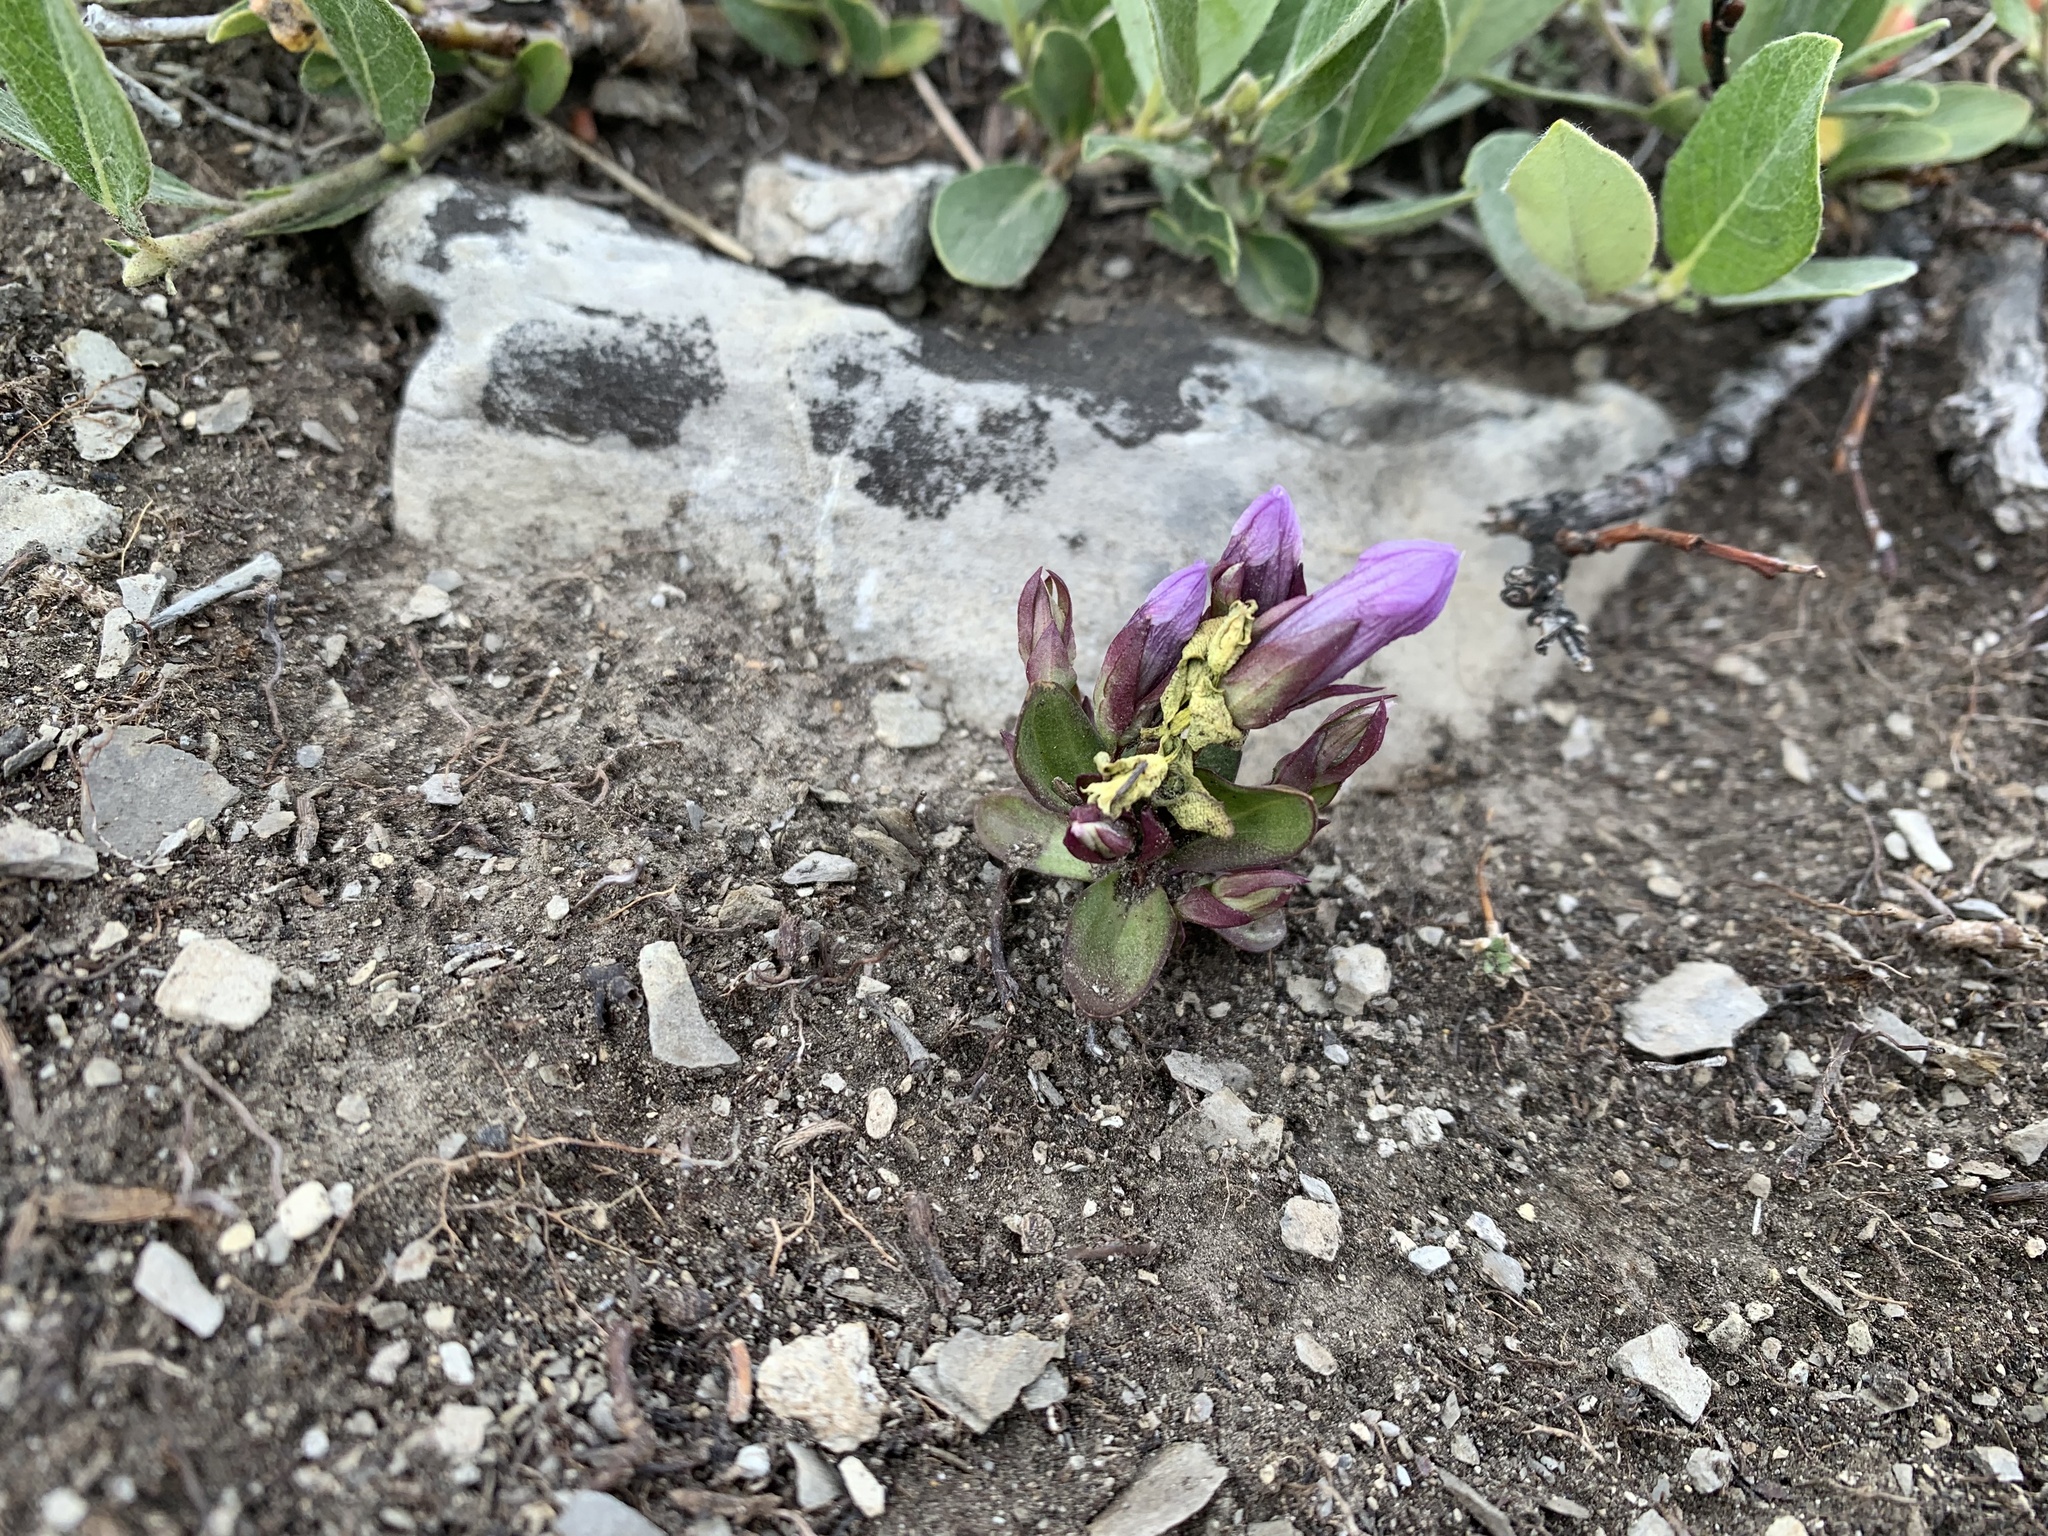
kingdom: Plantae
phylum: Tracheophyta
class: Magnoliopsida
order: Gentianales
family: Gentianaceae
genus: Gentianella
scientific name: Gentianella propinqua
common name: Four-parted dwarf-gentian
